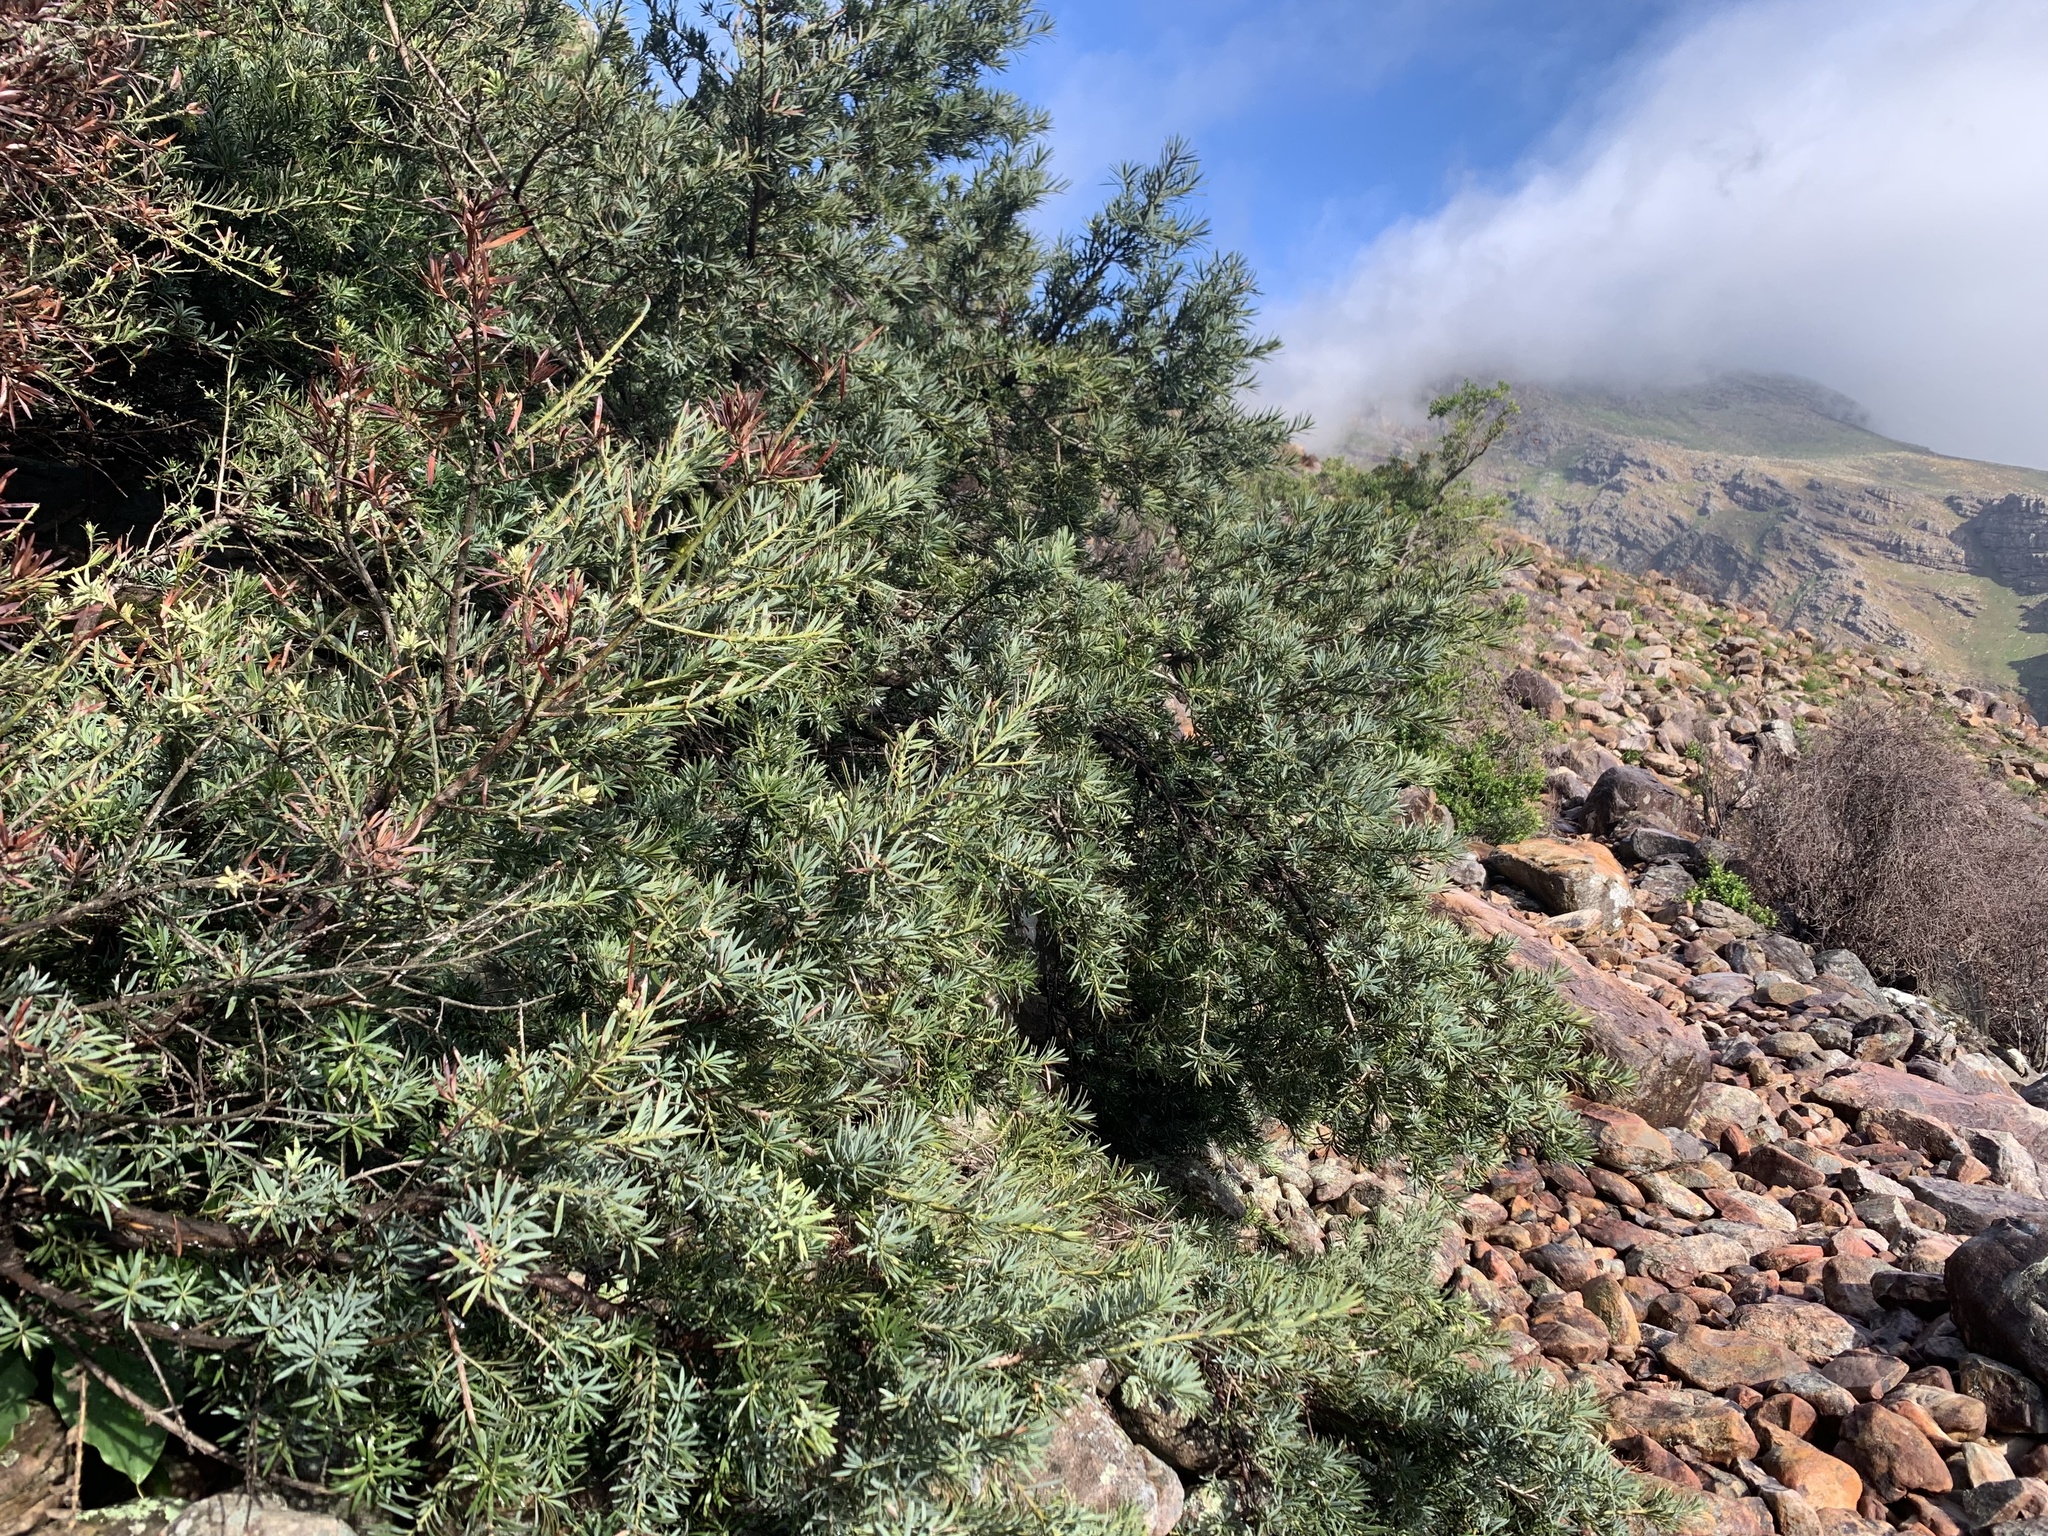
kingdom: Plantae
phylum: Tracheophyta
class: Pinopsida
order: Pinales
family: Podocarpaceae
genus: Podocarpus
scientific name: Podocarpus latifolius
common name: True yellowwood
